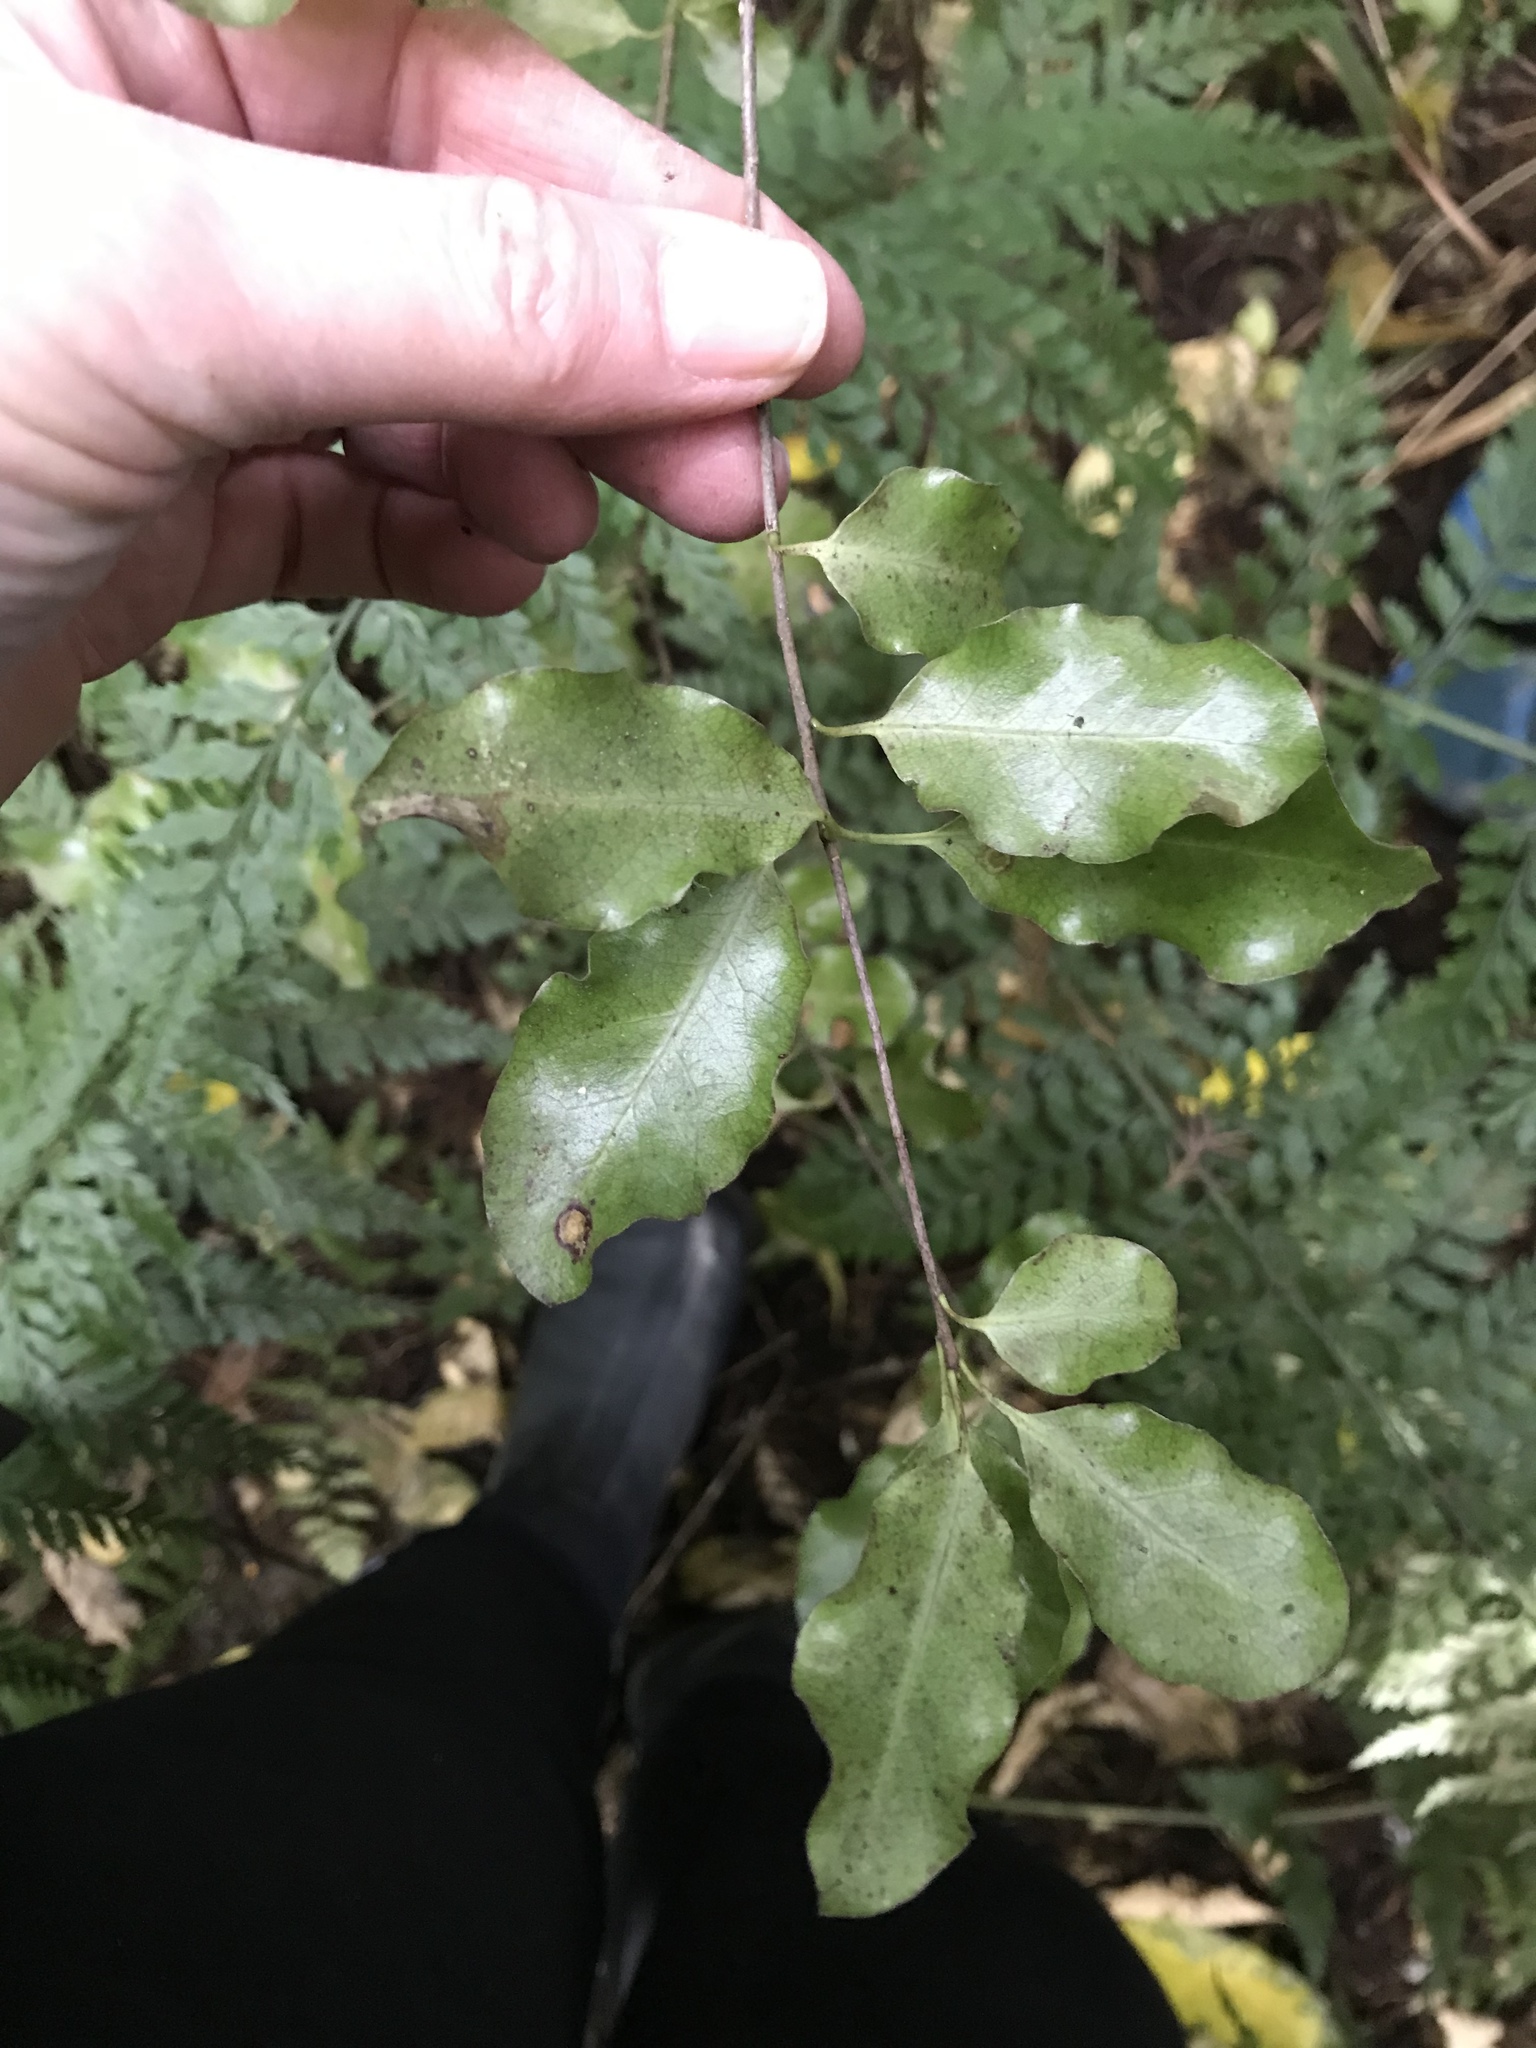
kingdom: Plantae
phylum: Tracheophyta
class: Magnoliopsida
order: Apiales
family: Pittosporaceae
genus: Pittosporum
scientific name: Pittosporum tenuifolium
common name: Kohuhu
